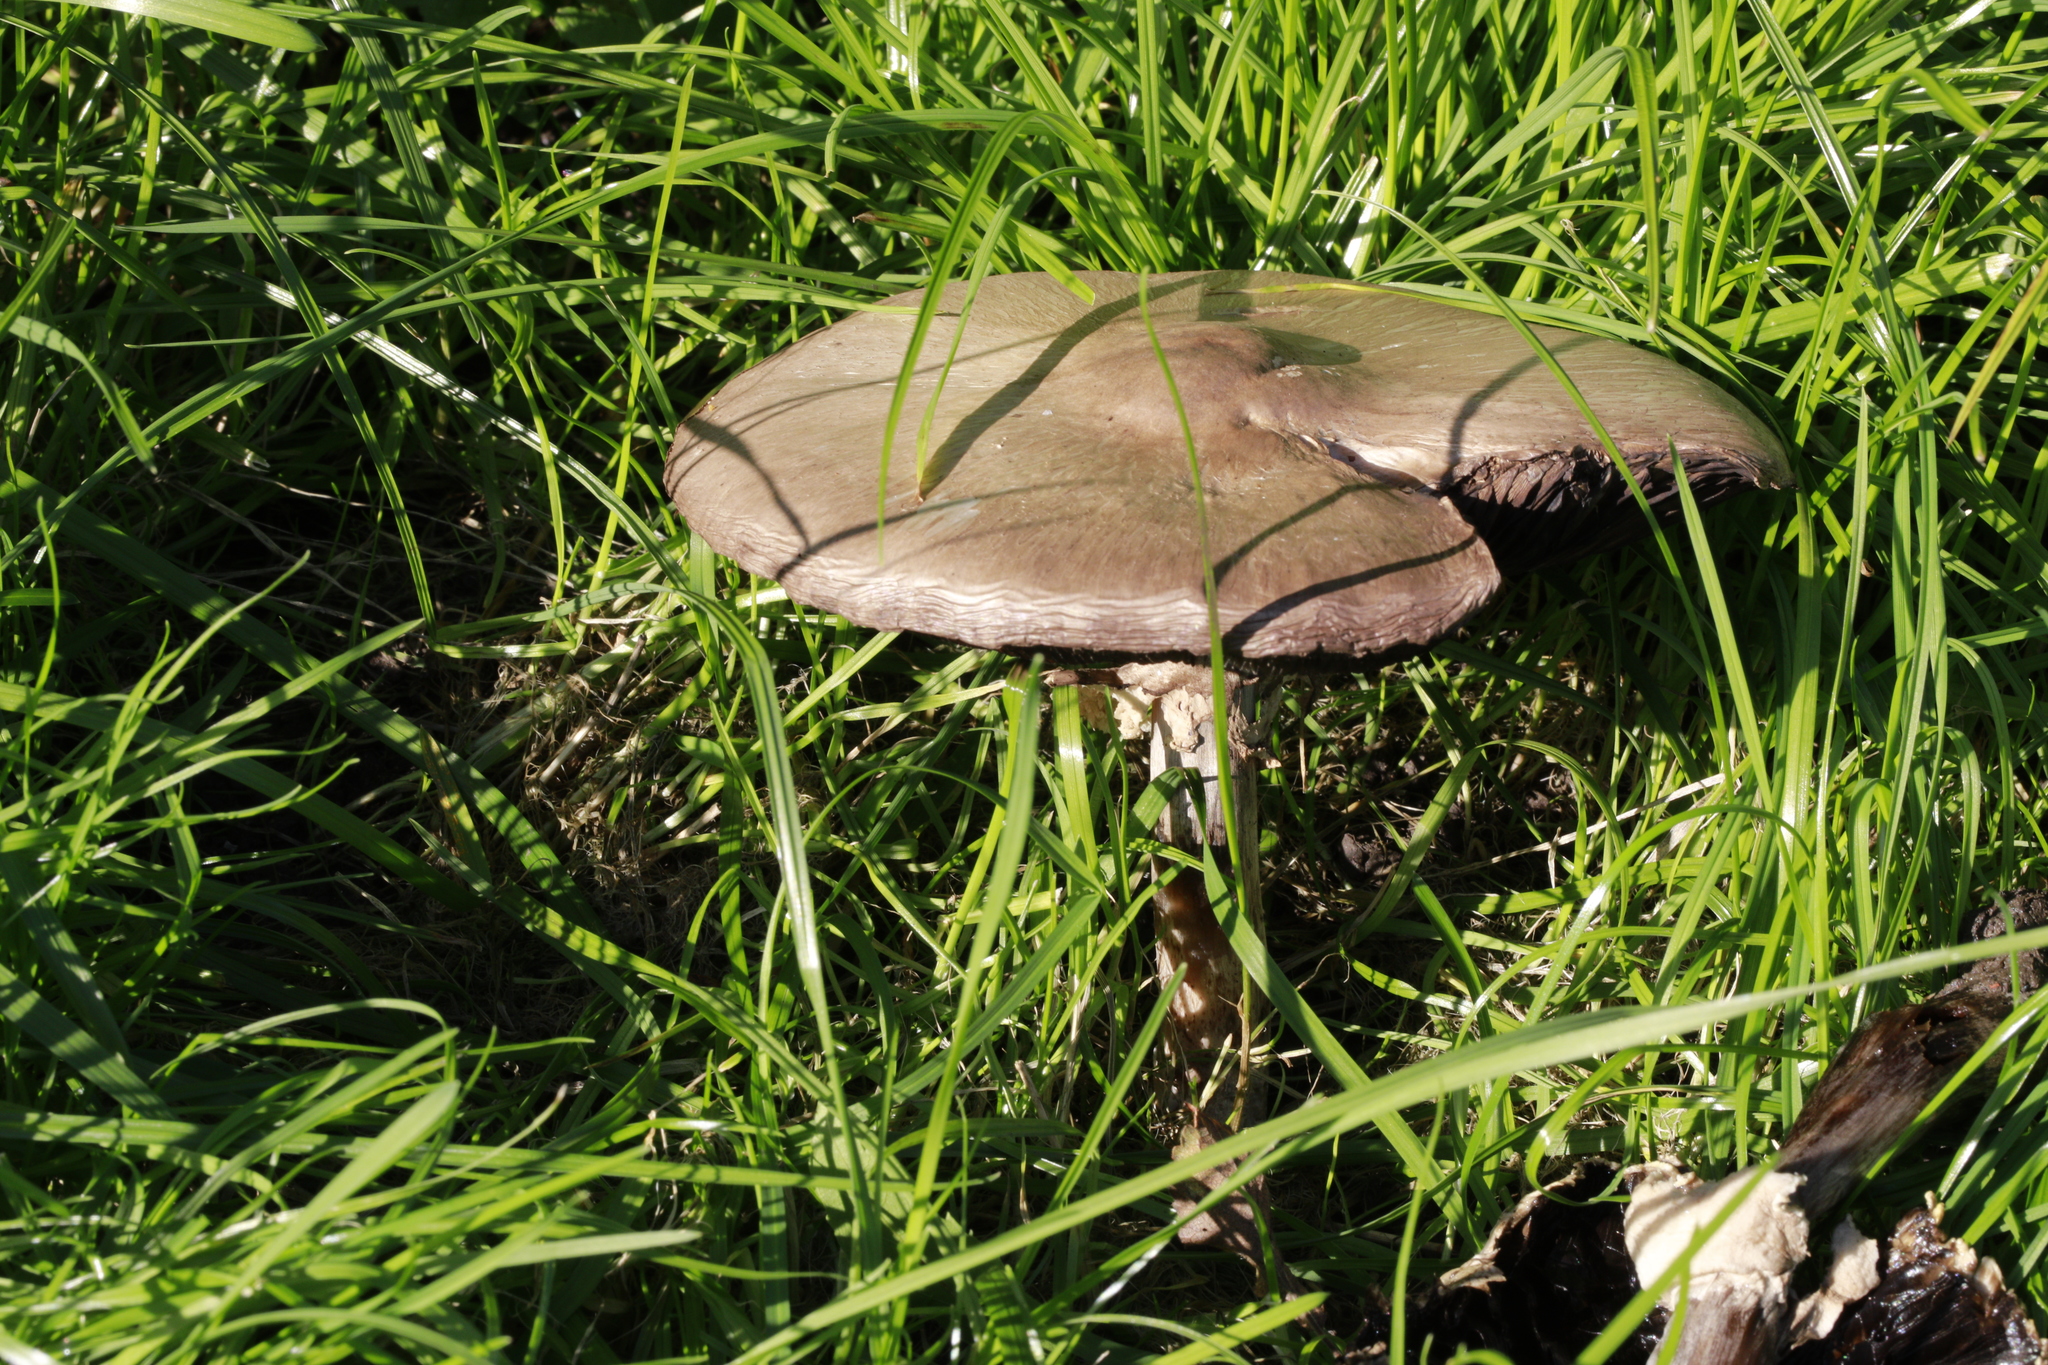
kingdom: Fungi
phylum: Basidiomycota
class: Agaricomycetes
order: Agaricales
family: Agaricaceae
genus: Agaricus
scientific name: Agaricus
